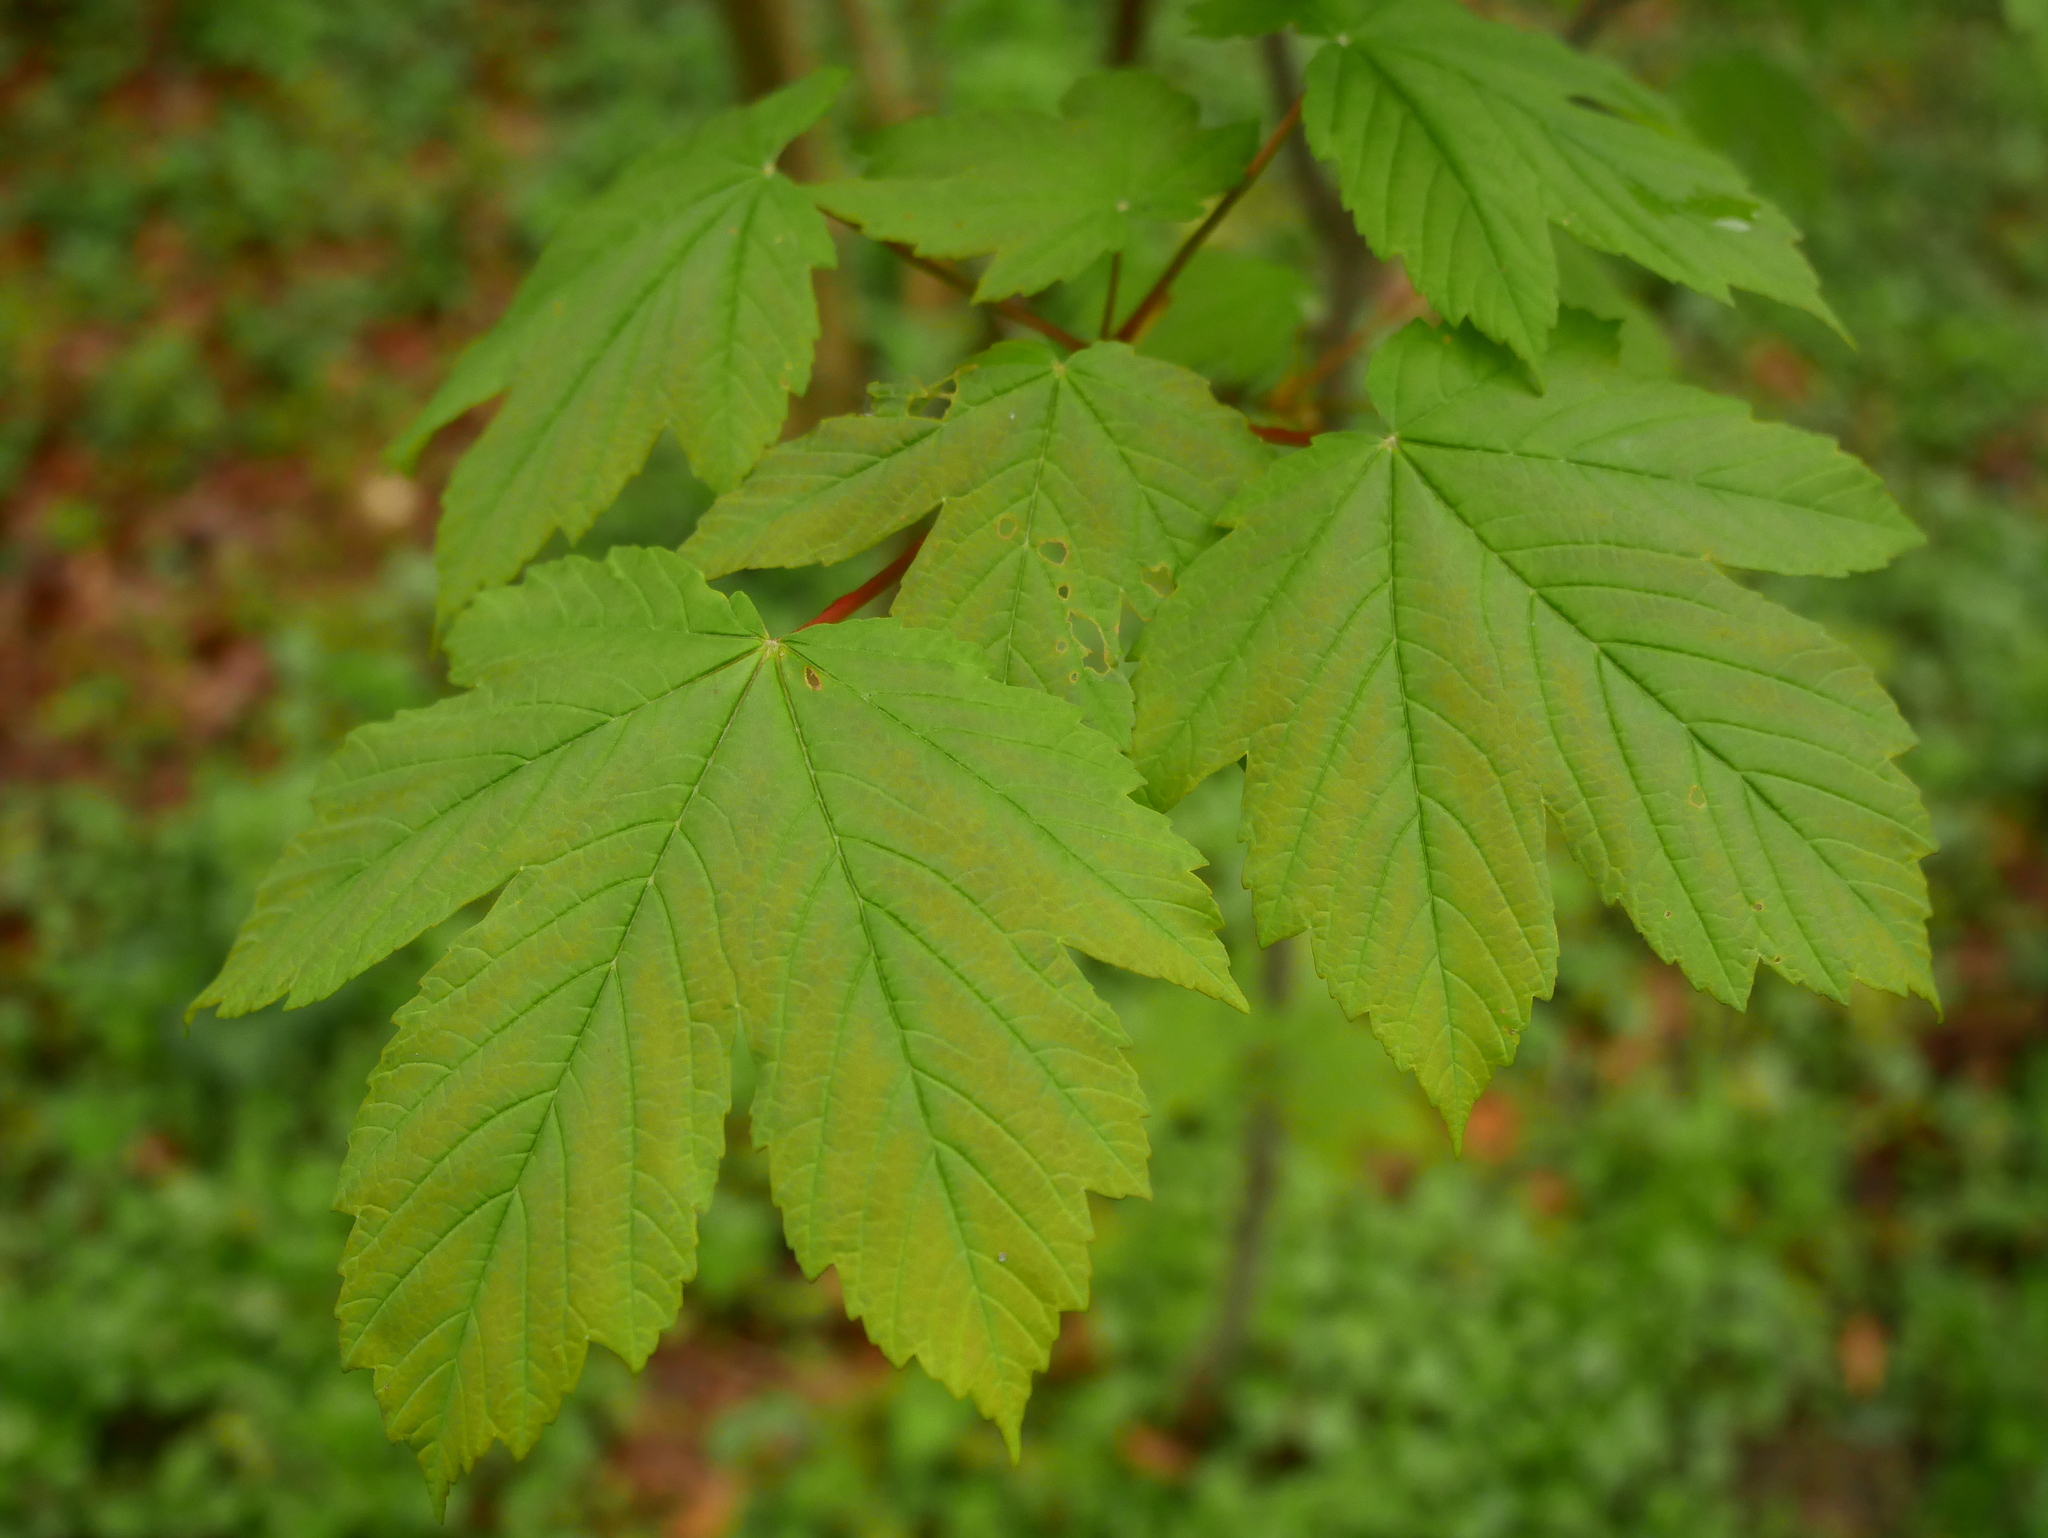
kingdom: Plantae
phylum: Tracheophyta
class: Magnoliopsida
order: Sapindales
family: Sapindaceae
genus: Acer
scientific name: Acer pseudoplatanus
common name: Sycamore
